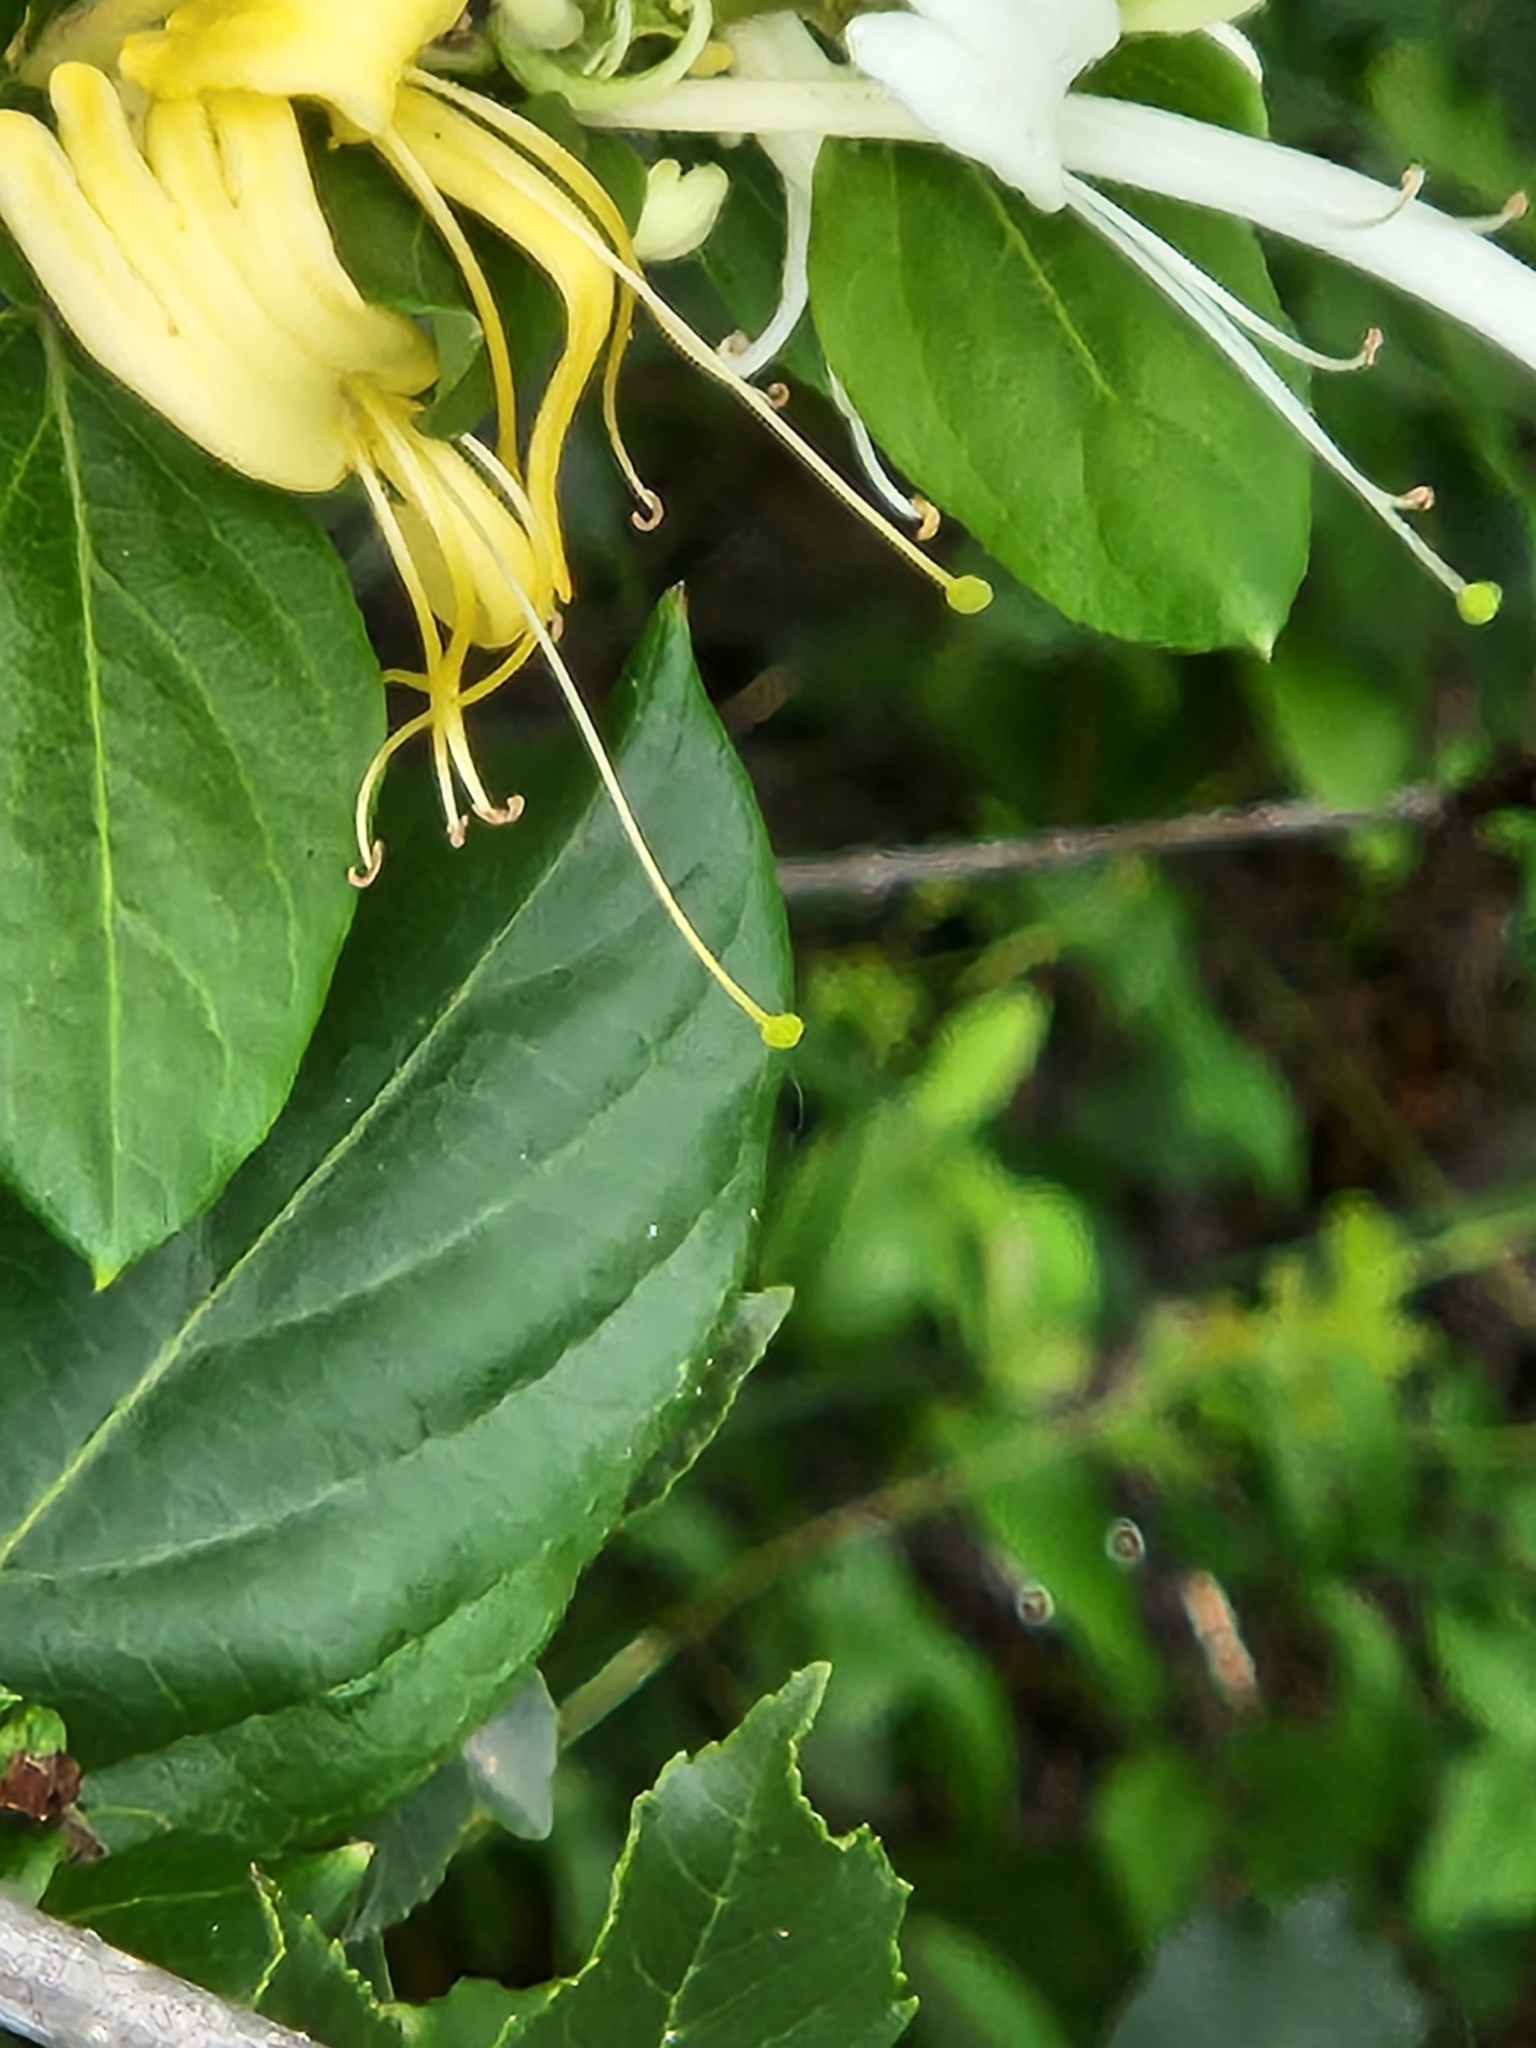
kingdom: Plantae
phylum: Tracheophyta
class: Magnoliopsida
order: Dipsacales
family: Caprifoliaceae
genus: Lonicera
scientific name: Lonicera japonica
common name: Japanese honeysuckle
